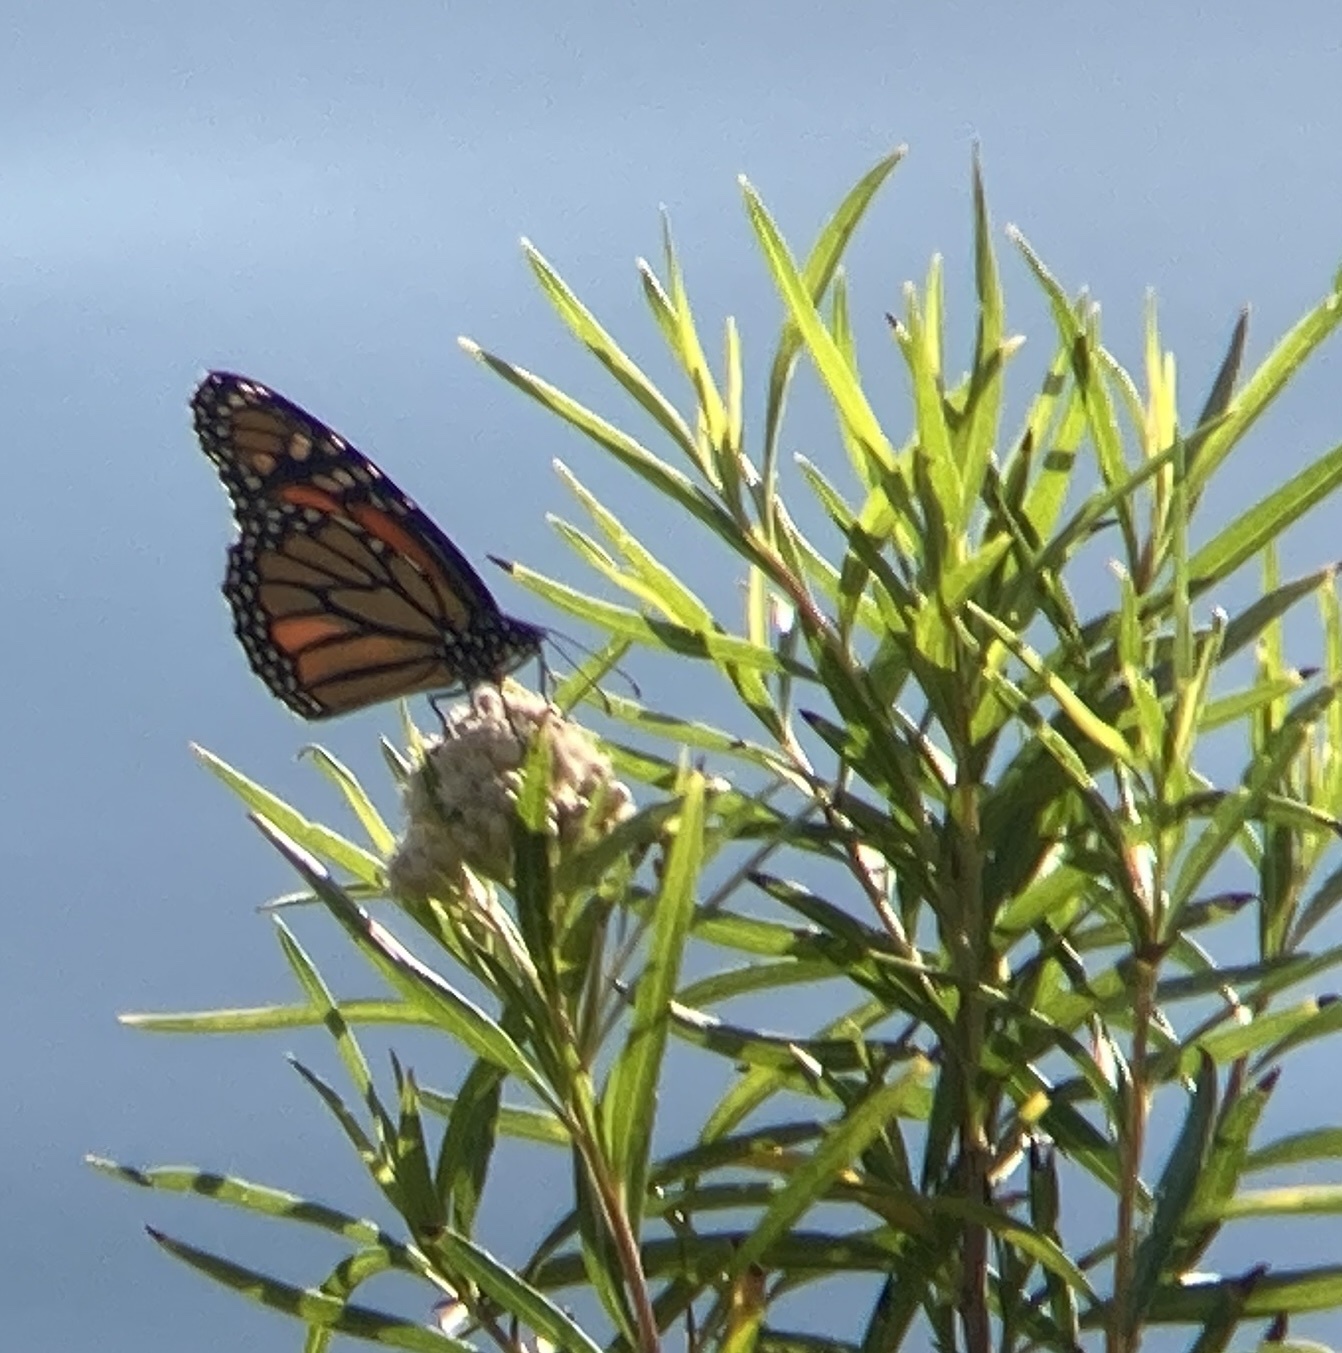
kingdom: Plantae
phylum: Tracheophyta
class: Magnoliopsida
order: Asterales
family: Asteraceae
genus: Baccharis
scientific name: Baccharis salicifolia
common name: Sticky baccharis
